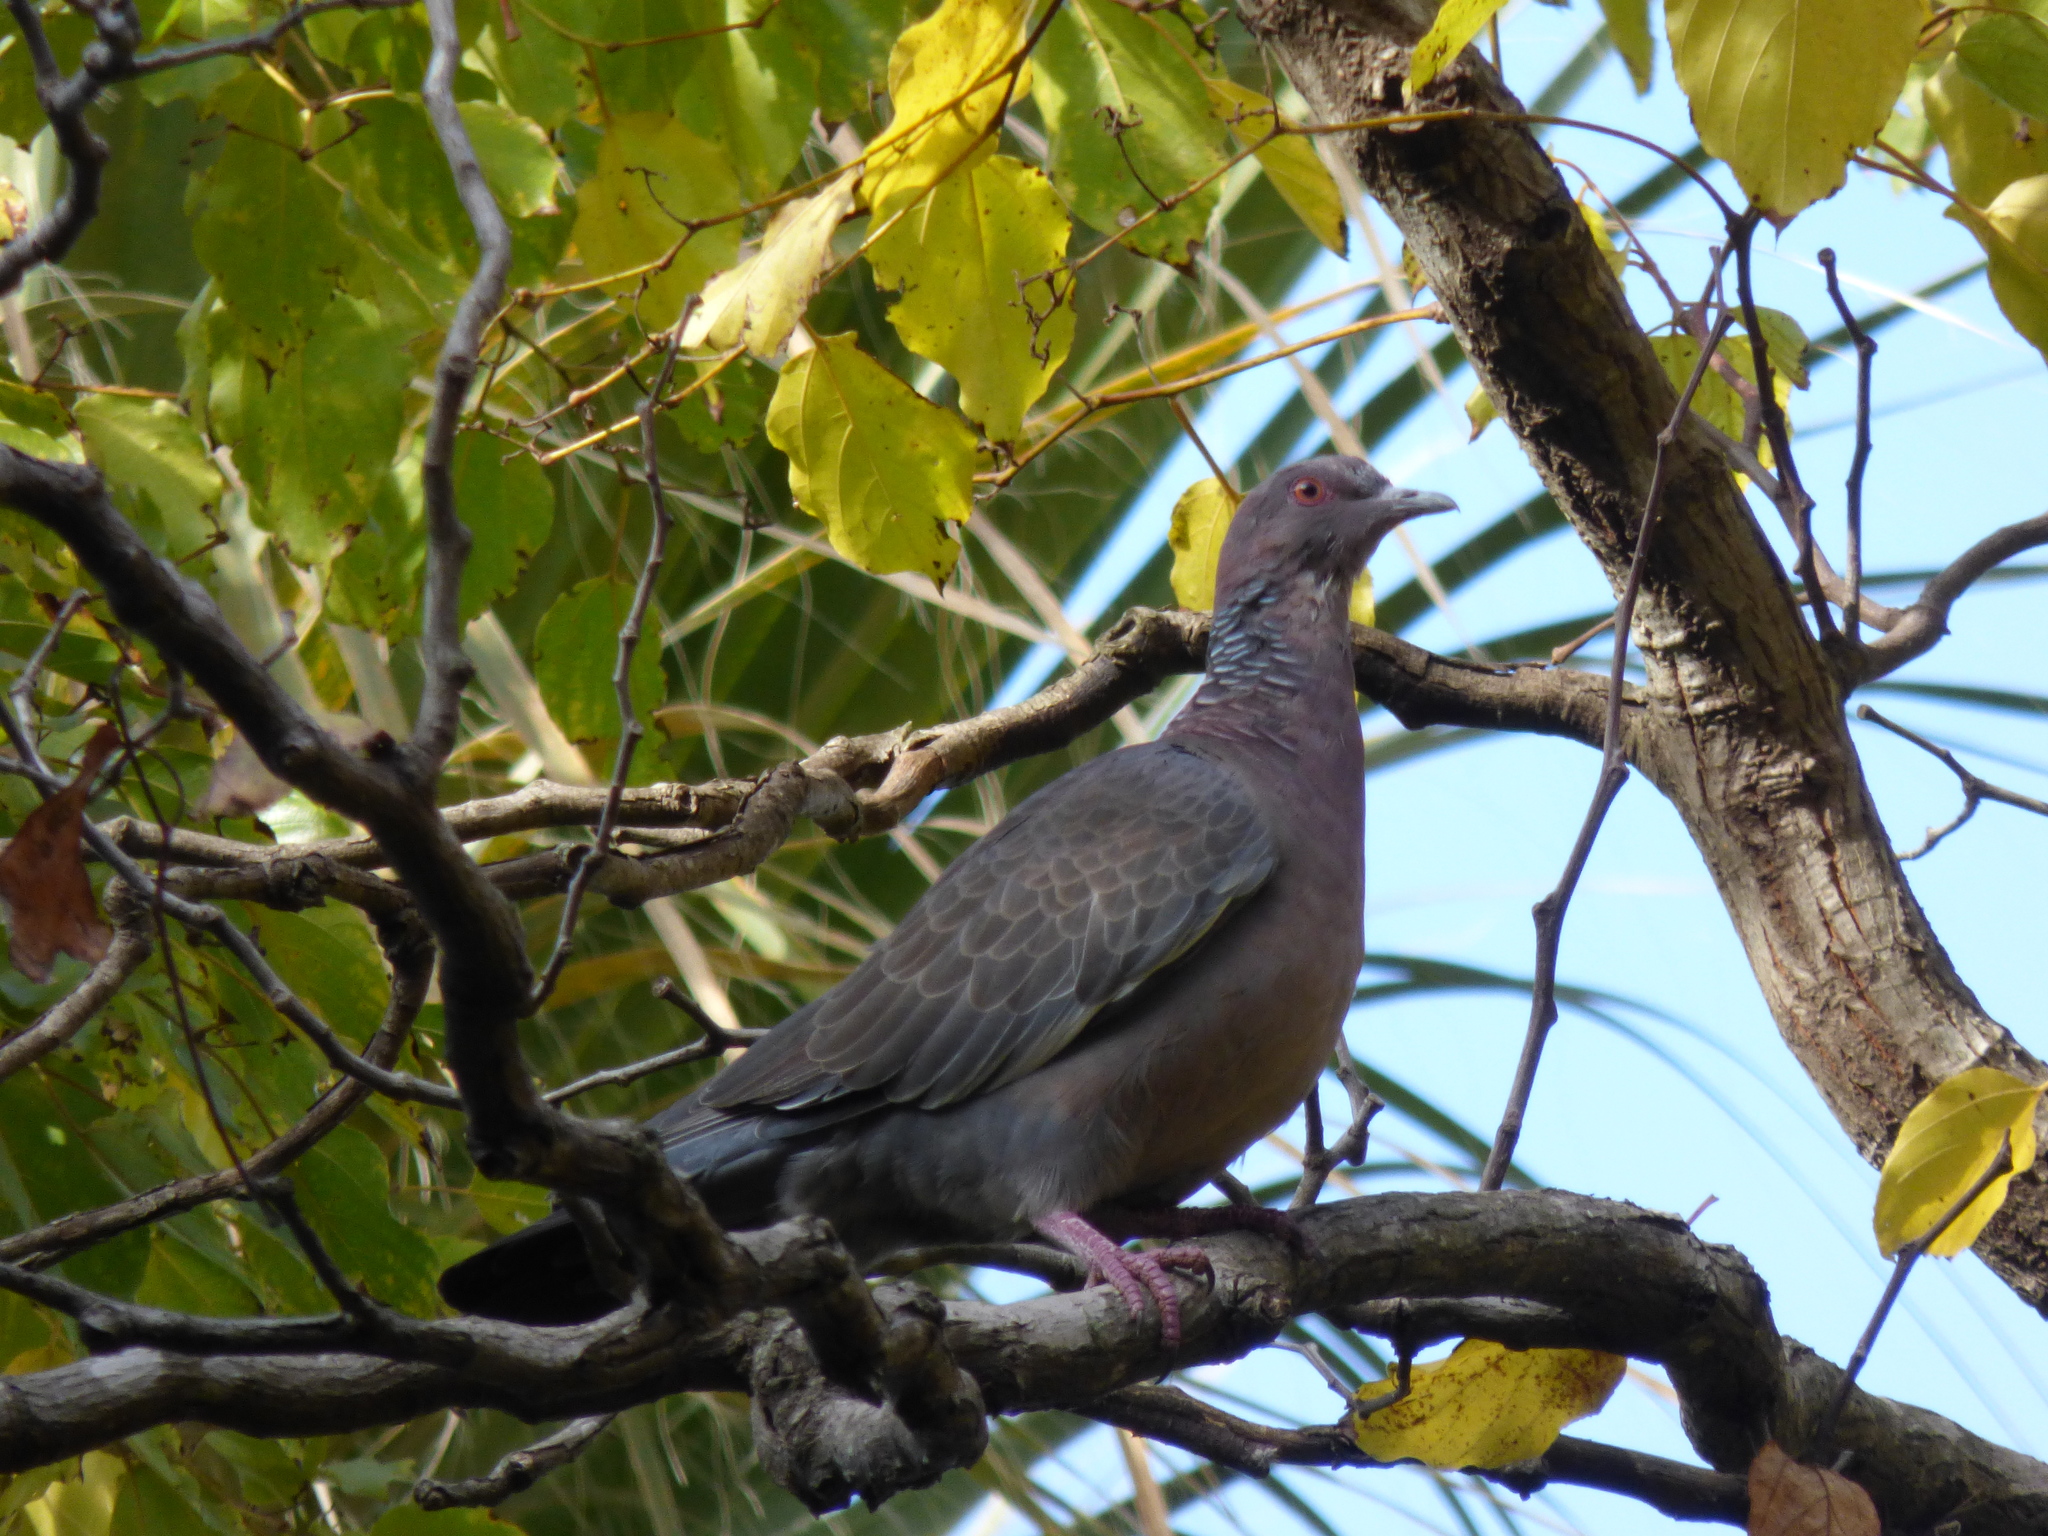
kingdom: Animalia
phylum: Chordata
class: Aves
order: Columbiformes
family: Columbidae
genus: Patagioenas
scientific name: Patagioenas picazuro
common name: Picazuro pigeon
